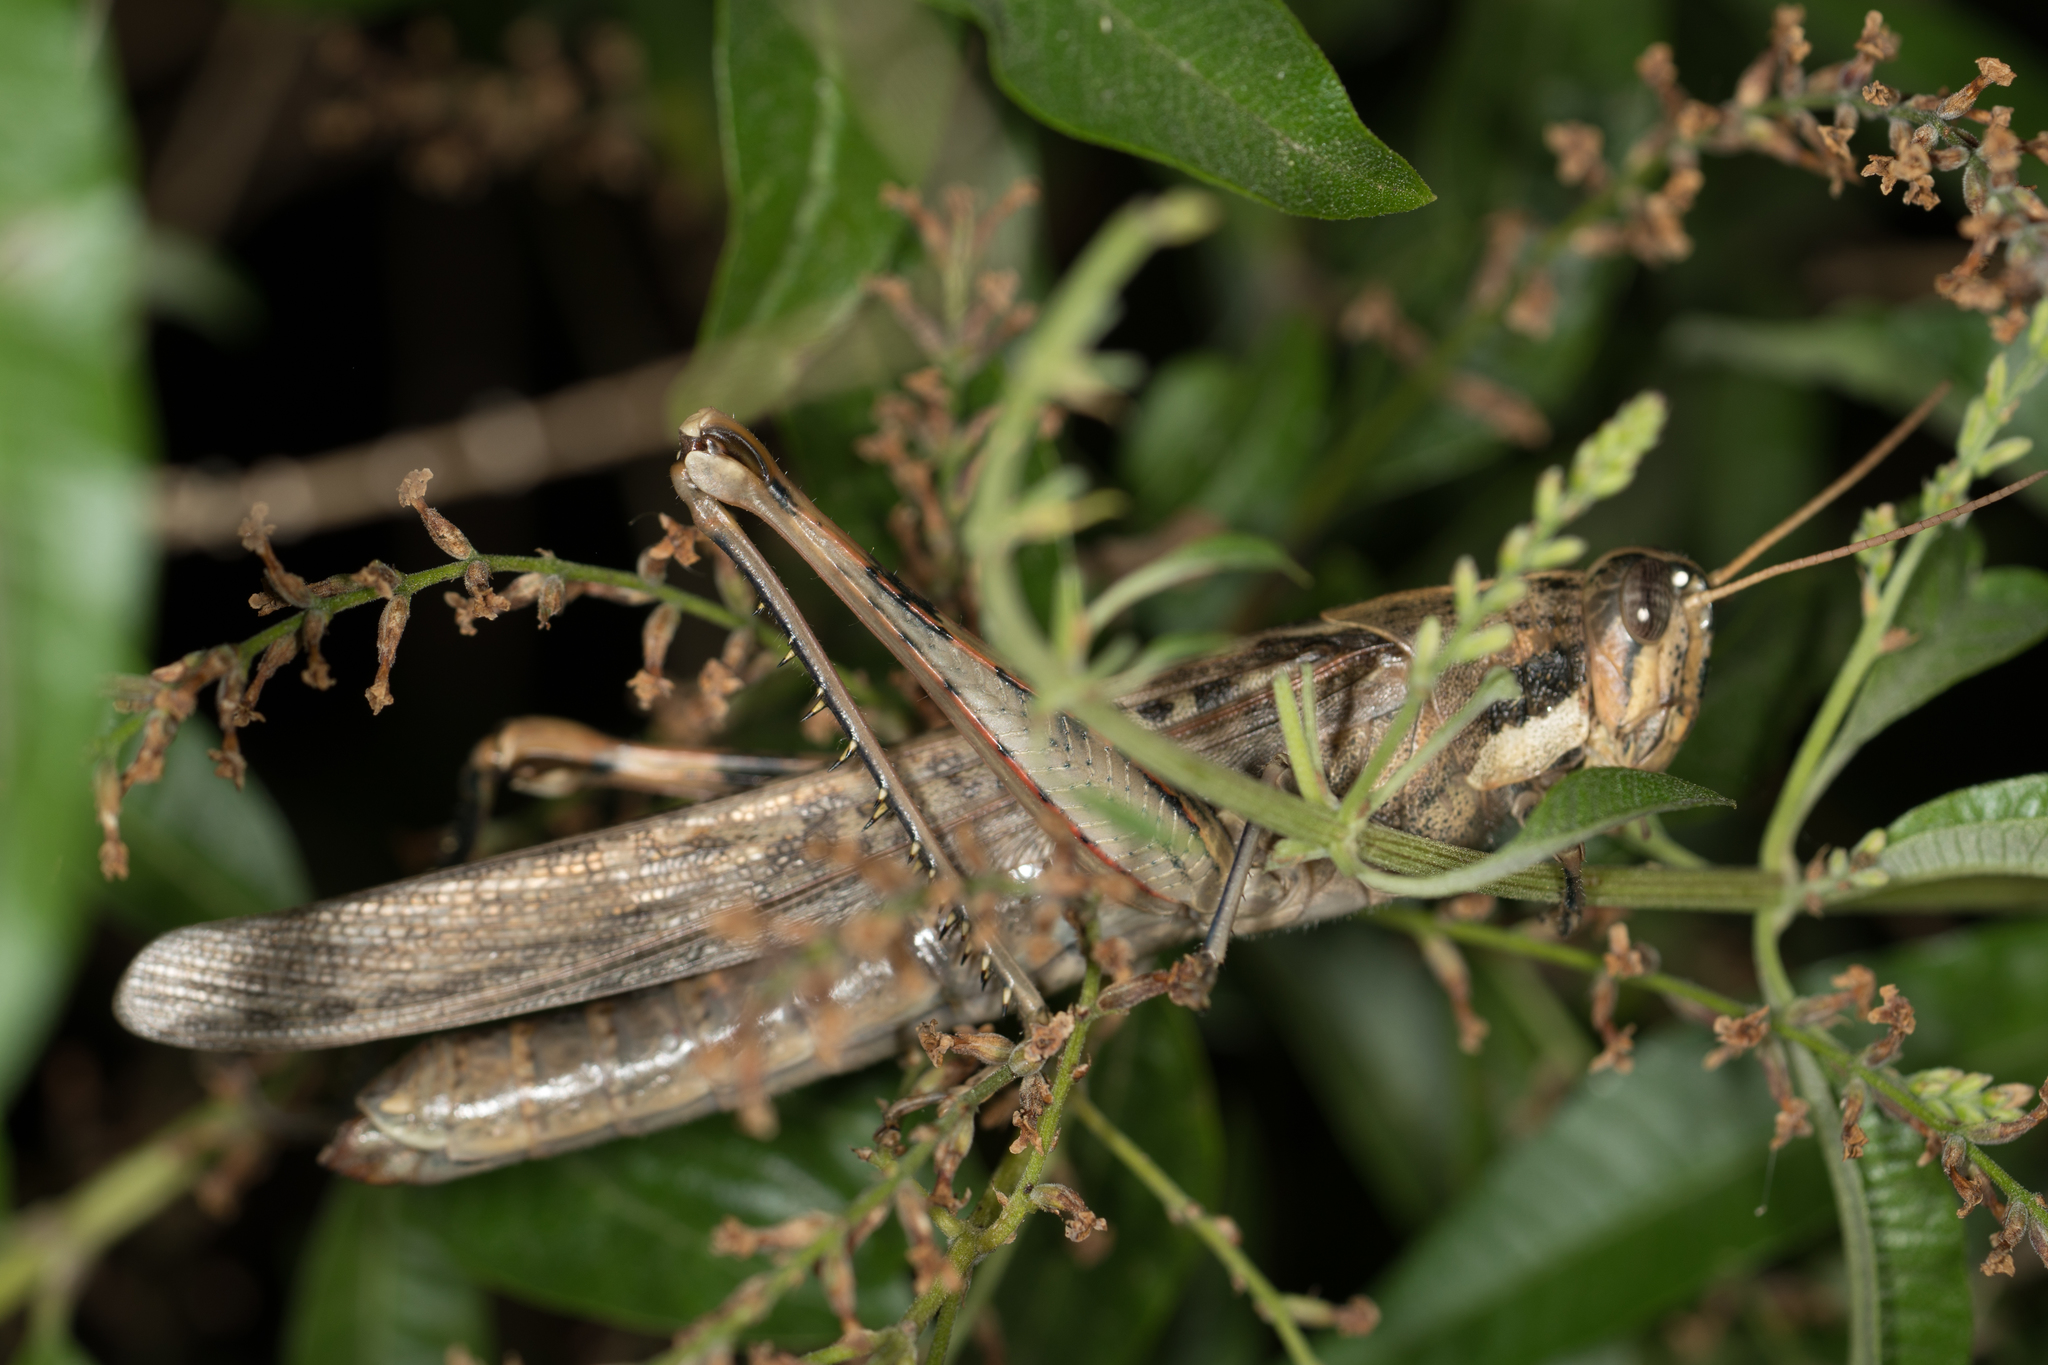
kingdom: Animalia
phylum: Arthropoda
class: Insecta
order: Orthoptera
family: Acrididae
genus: Schistocerca
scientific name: Schistocerca nitens
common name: Vagrant grasshopper
